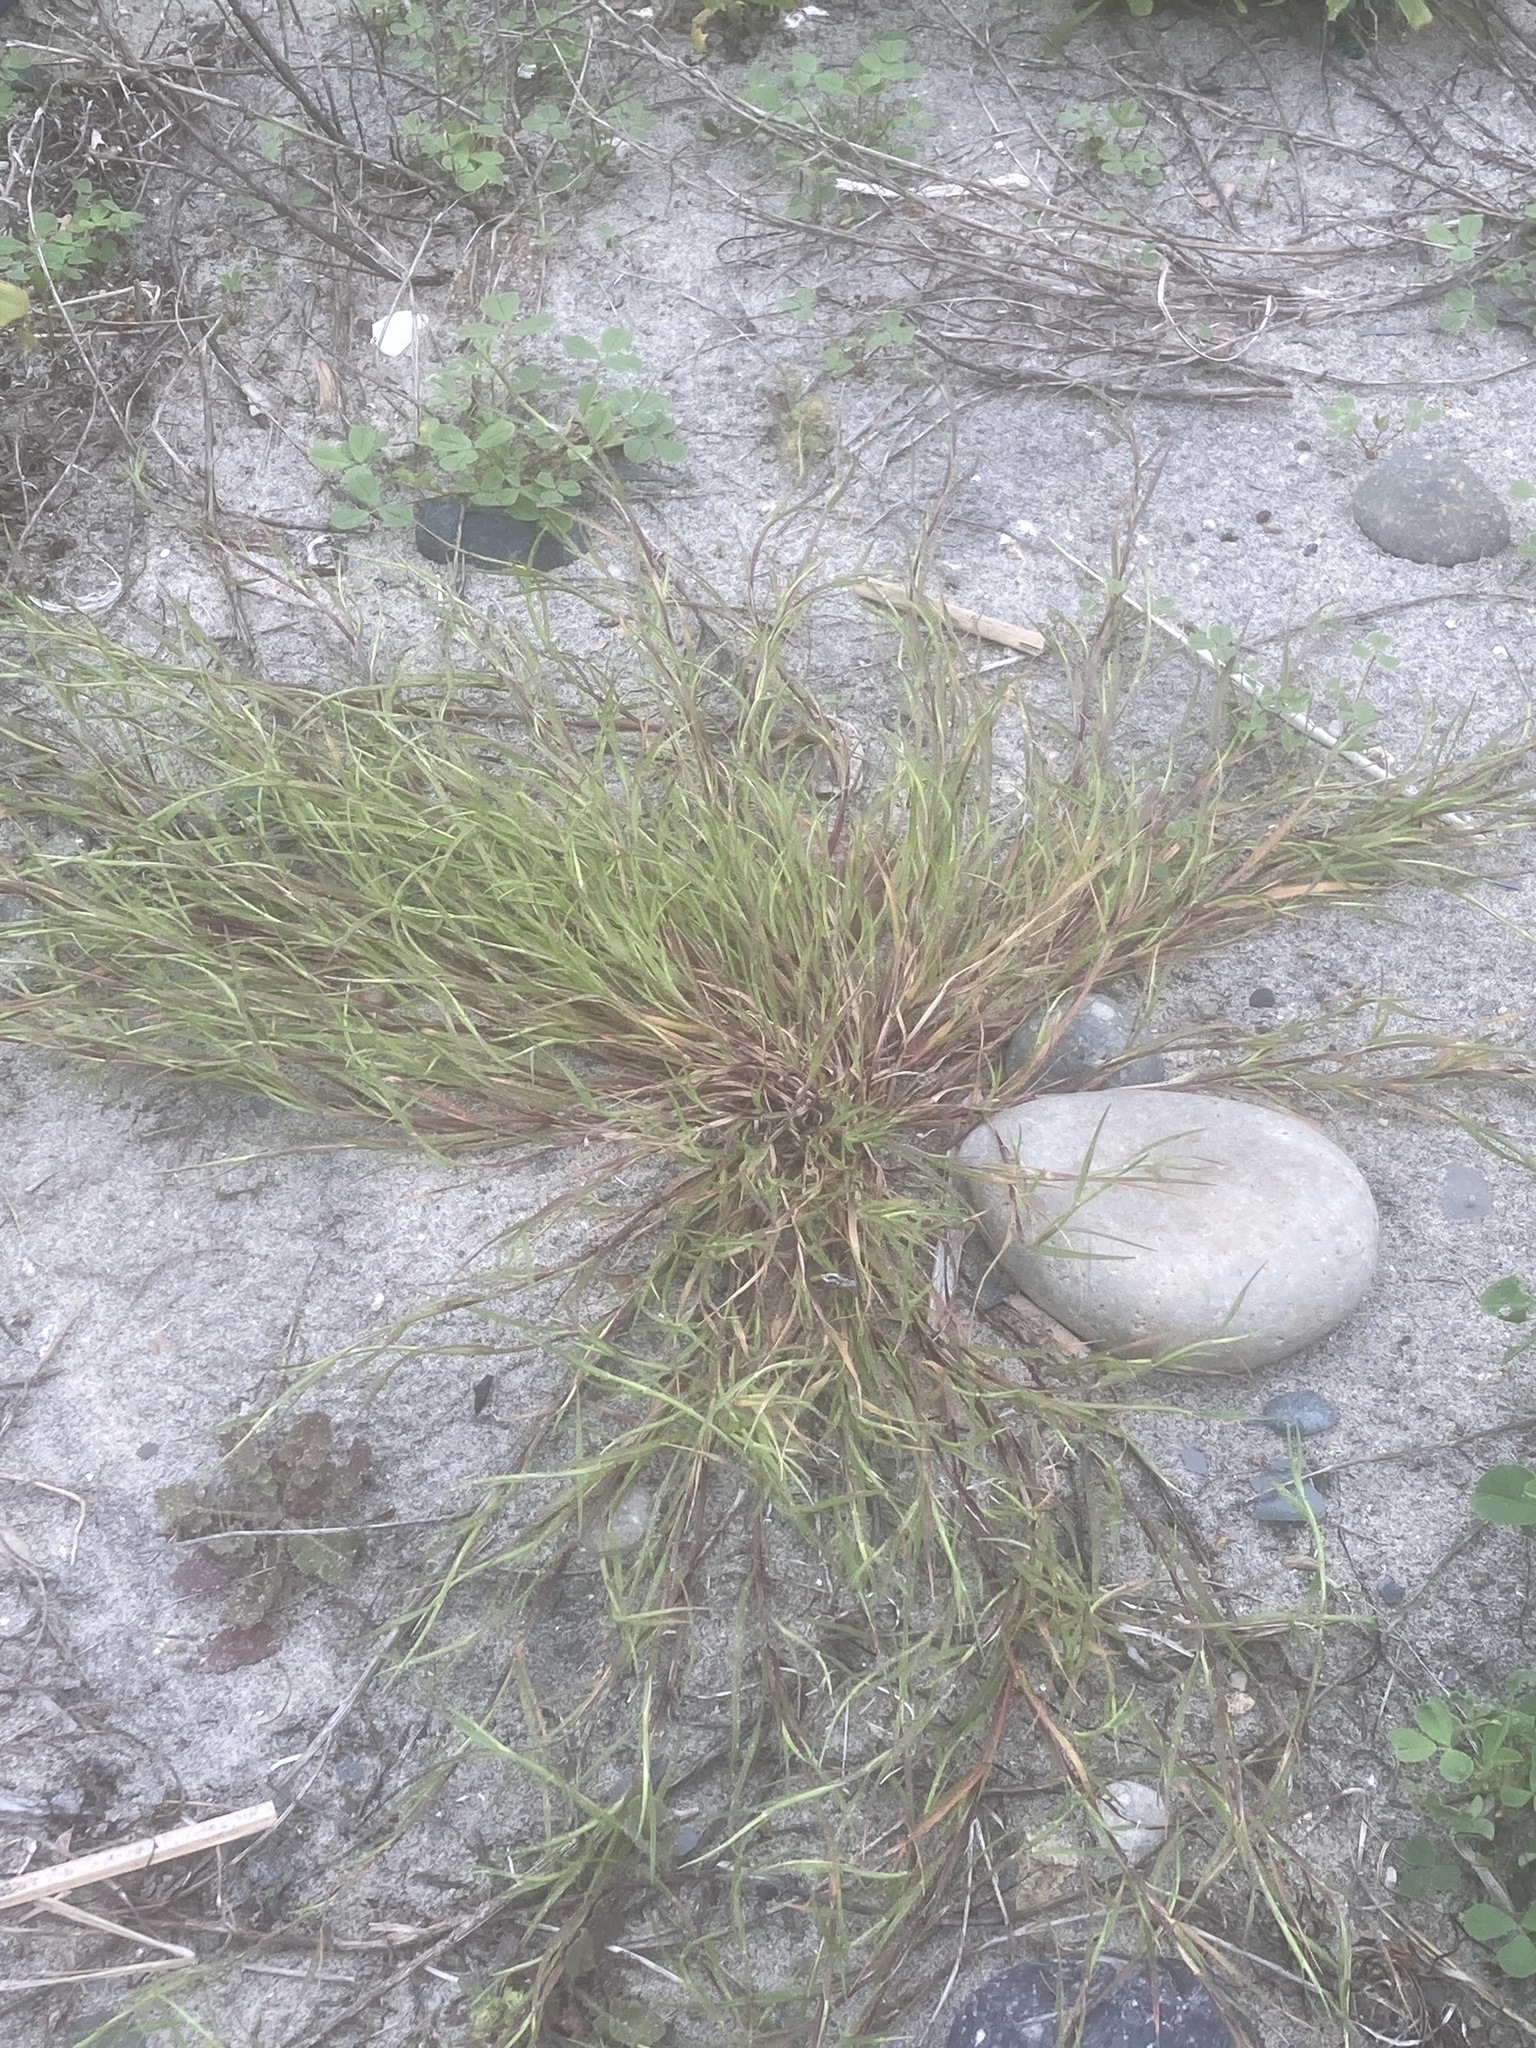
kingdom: Plantae
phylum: Tracheophyta
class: Liliopsida
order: Poales
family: Poaceae
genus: Parapholis
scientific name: Parapholis incurva
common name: Curved sicklegrass
